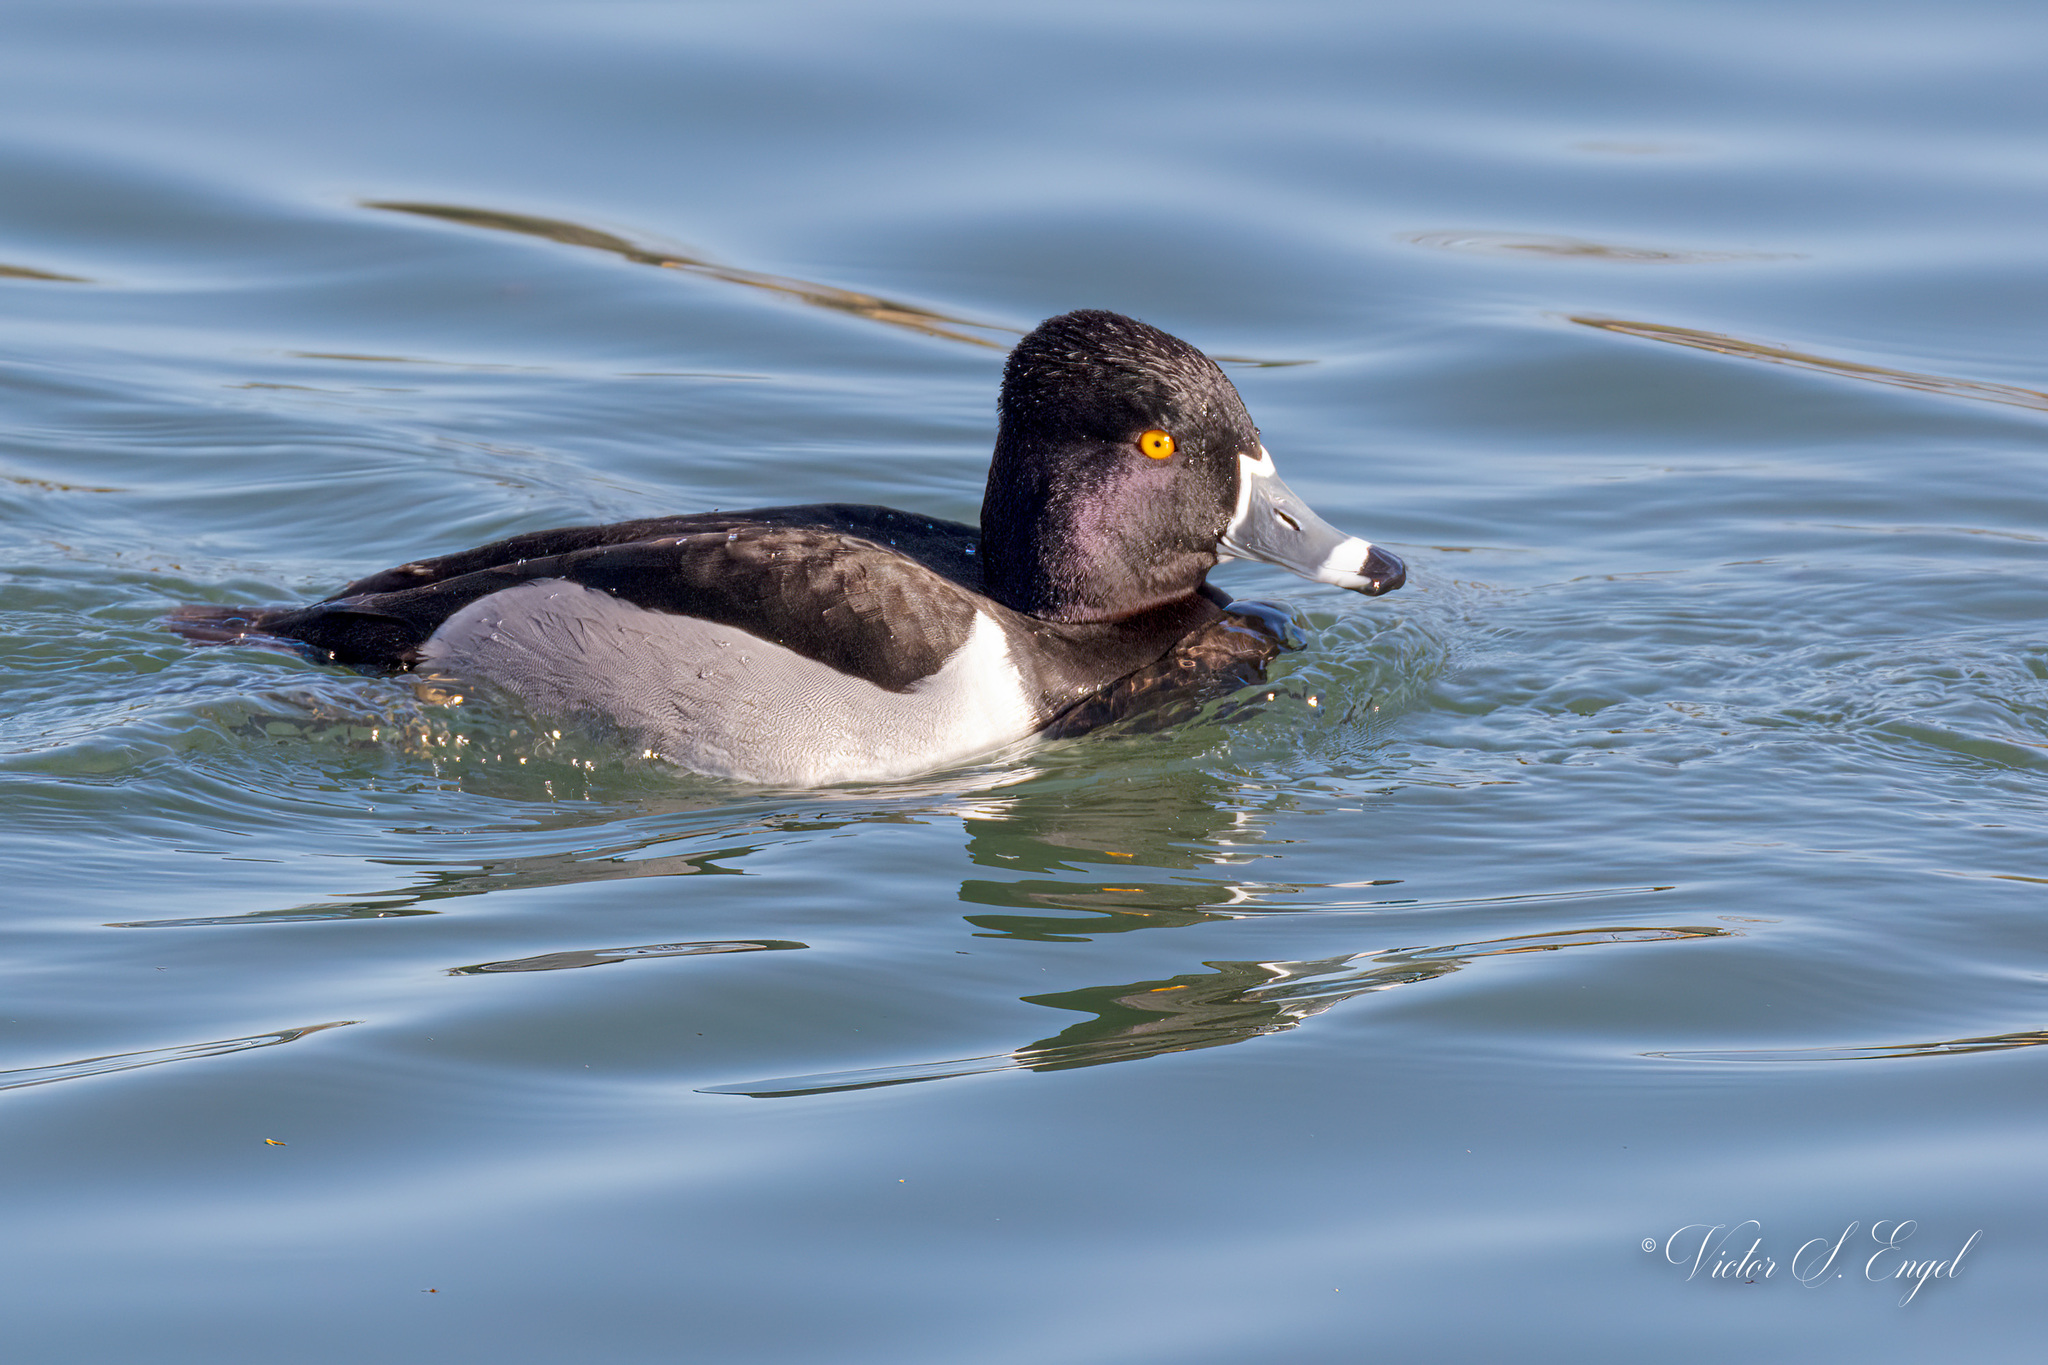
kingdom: Animalia
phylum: Chordata
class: Aves
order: Anseriformes
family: Anatidae
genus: Aythya
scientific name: Aythya collaris
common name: Ring-necked duck
